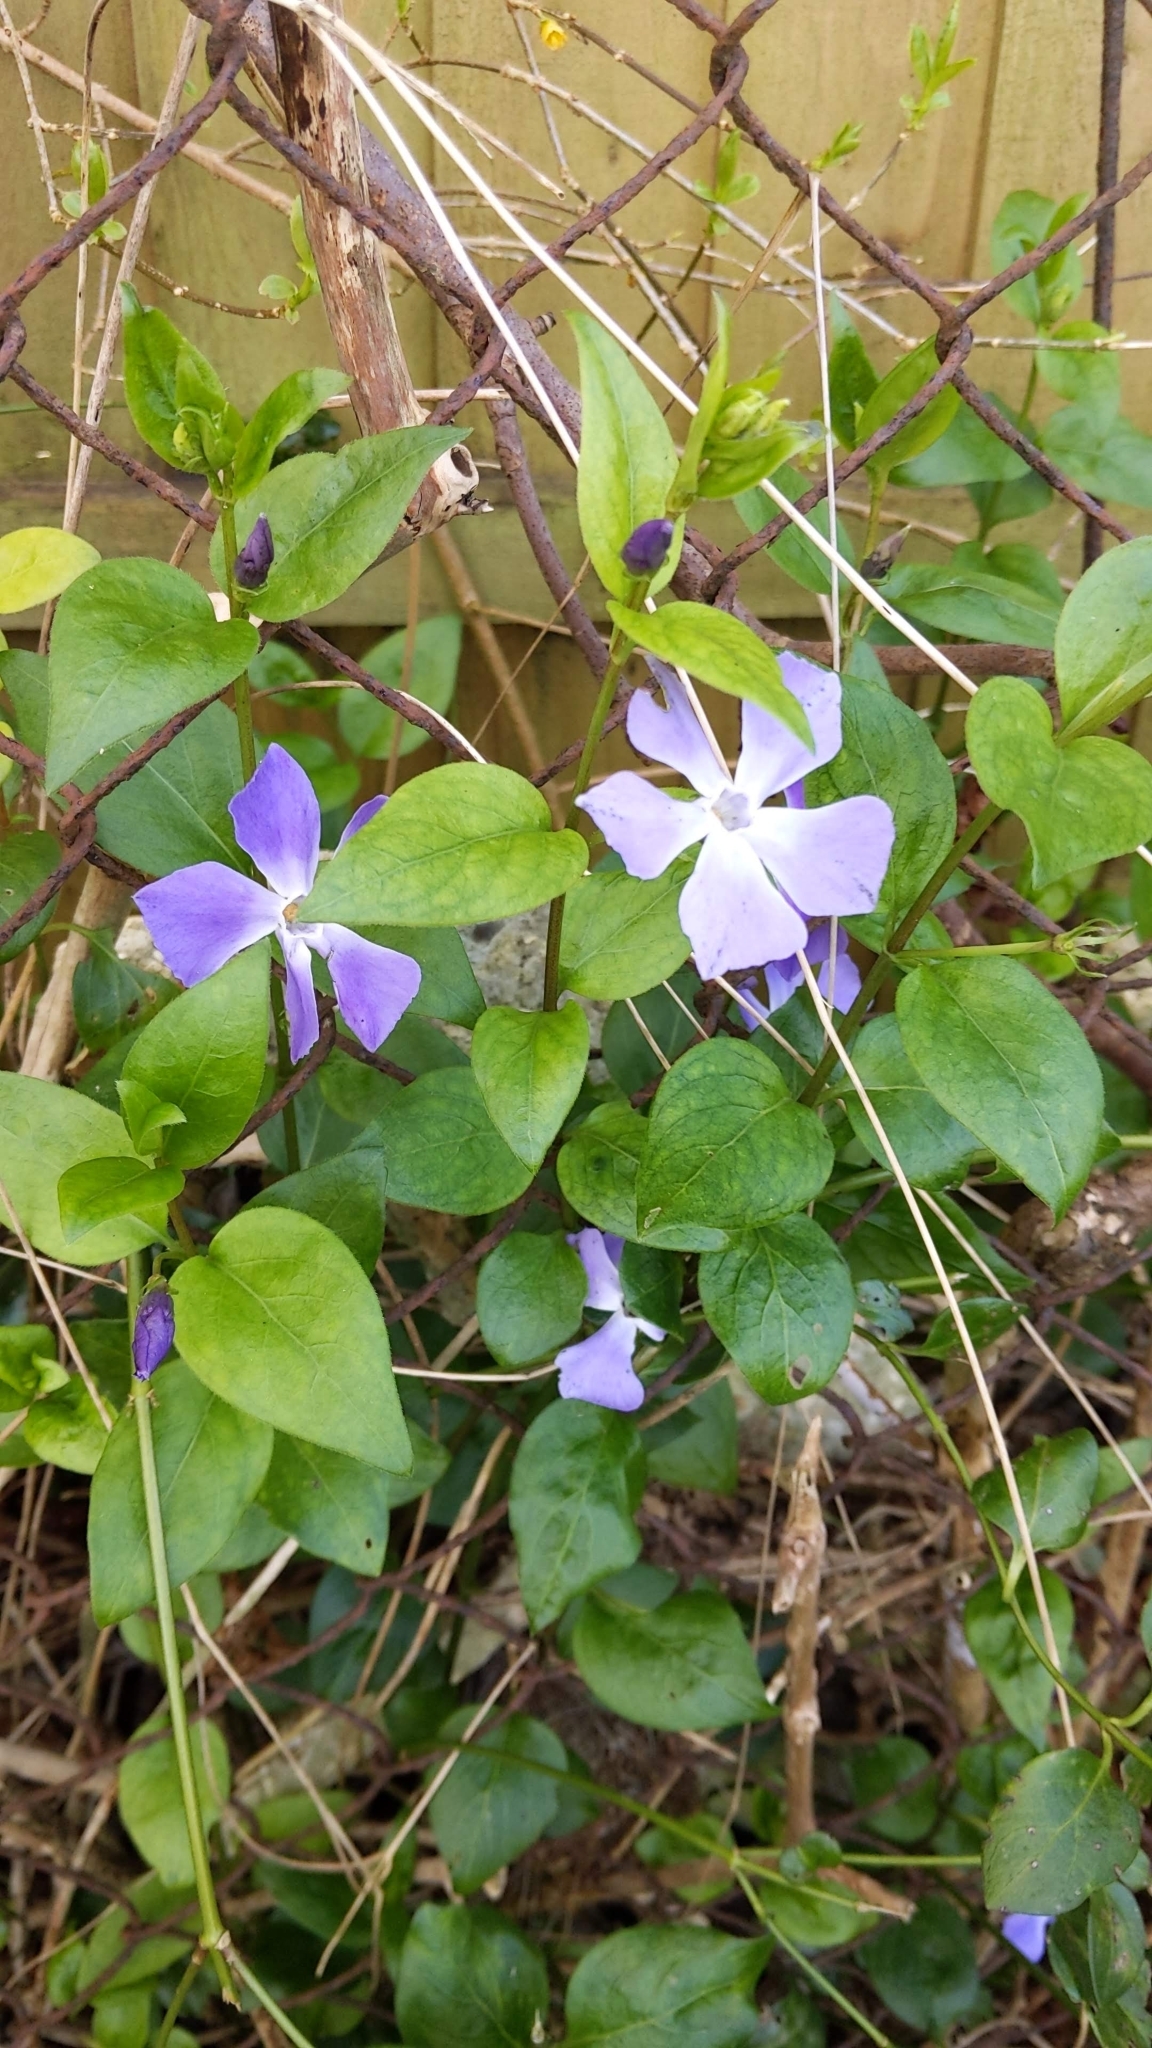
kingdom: Plantae
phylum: Tracheophyta
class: Magnoliopsida
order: Gentianales
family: Apocynaceae
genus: Vinca
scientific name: Vinca major
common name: Greater periwinkle
